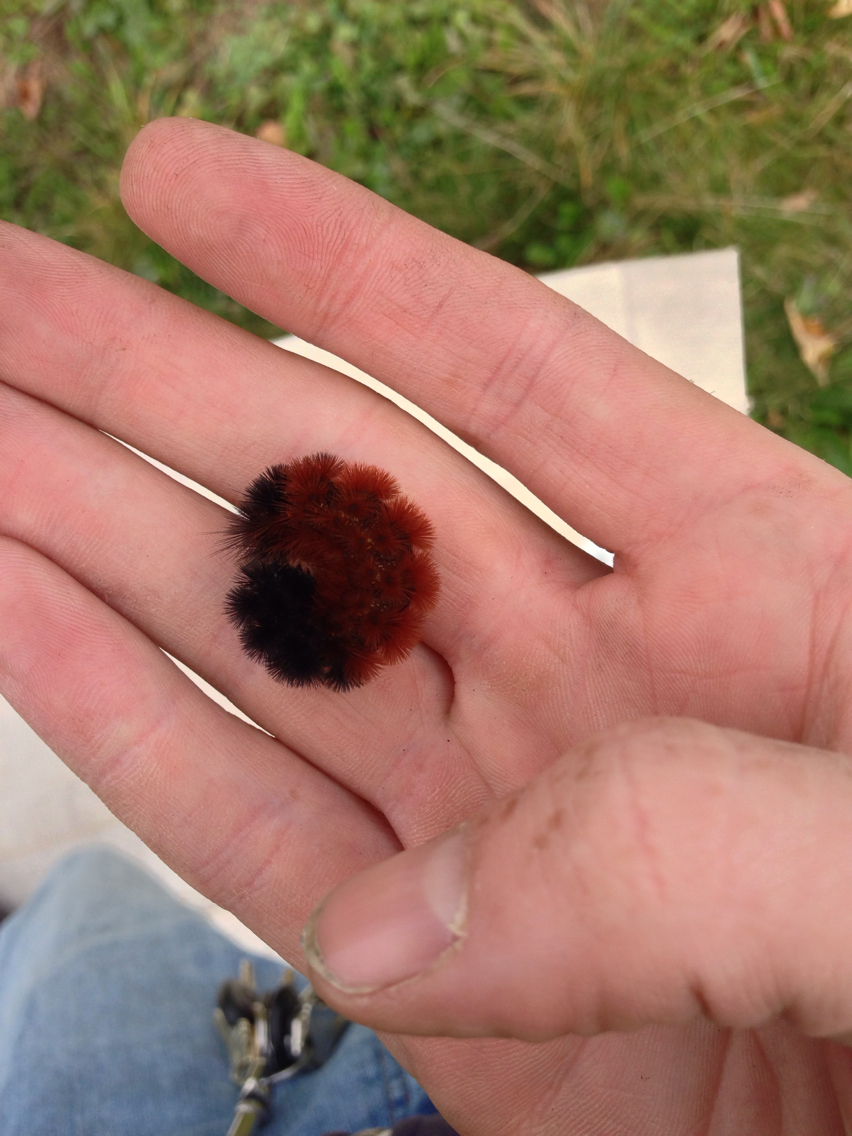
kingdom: Animalia
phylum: Arthropoda
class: Insecta
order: Lepidoptera
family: Erebidae
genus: Pyrrharctia
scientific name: Pyrrharctia isabella
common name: Isabella tiger moth
